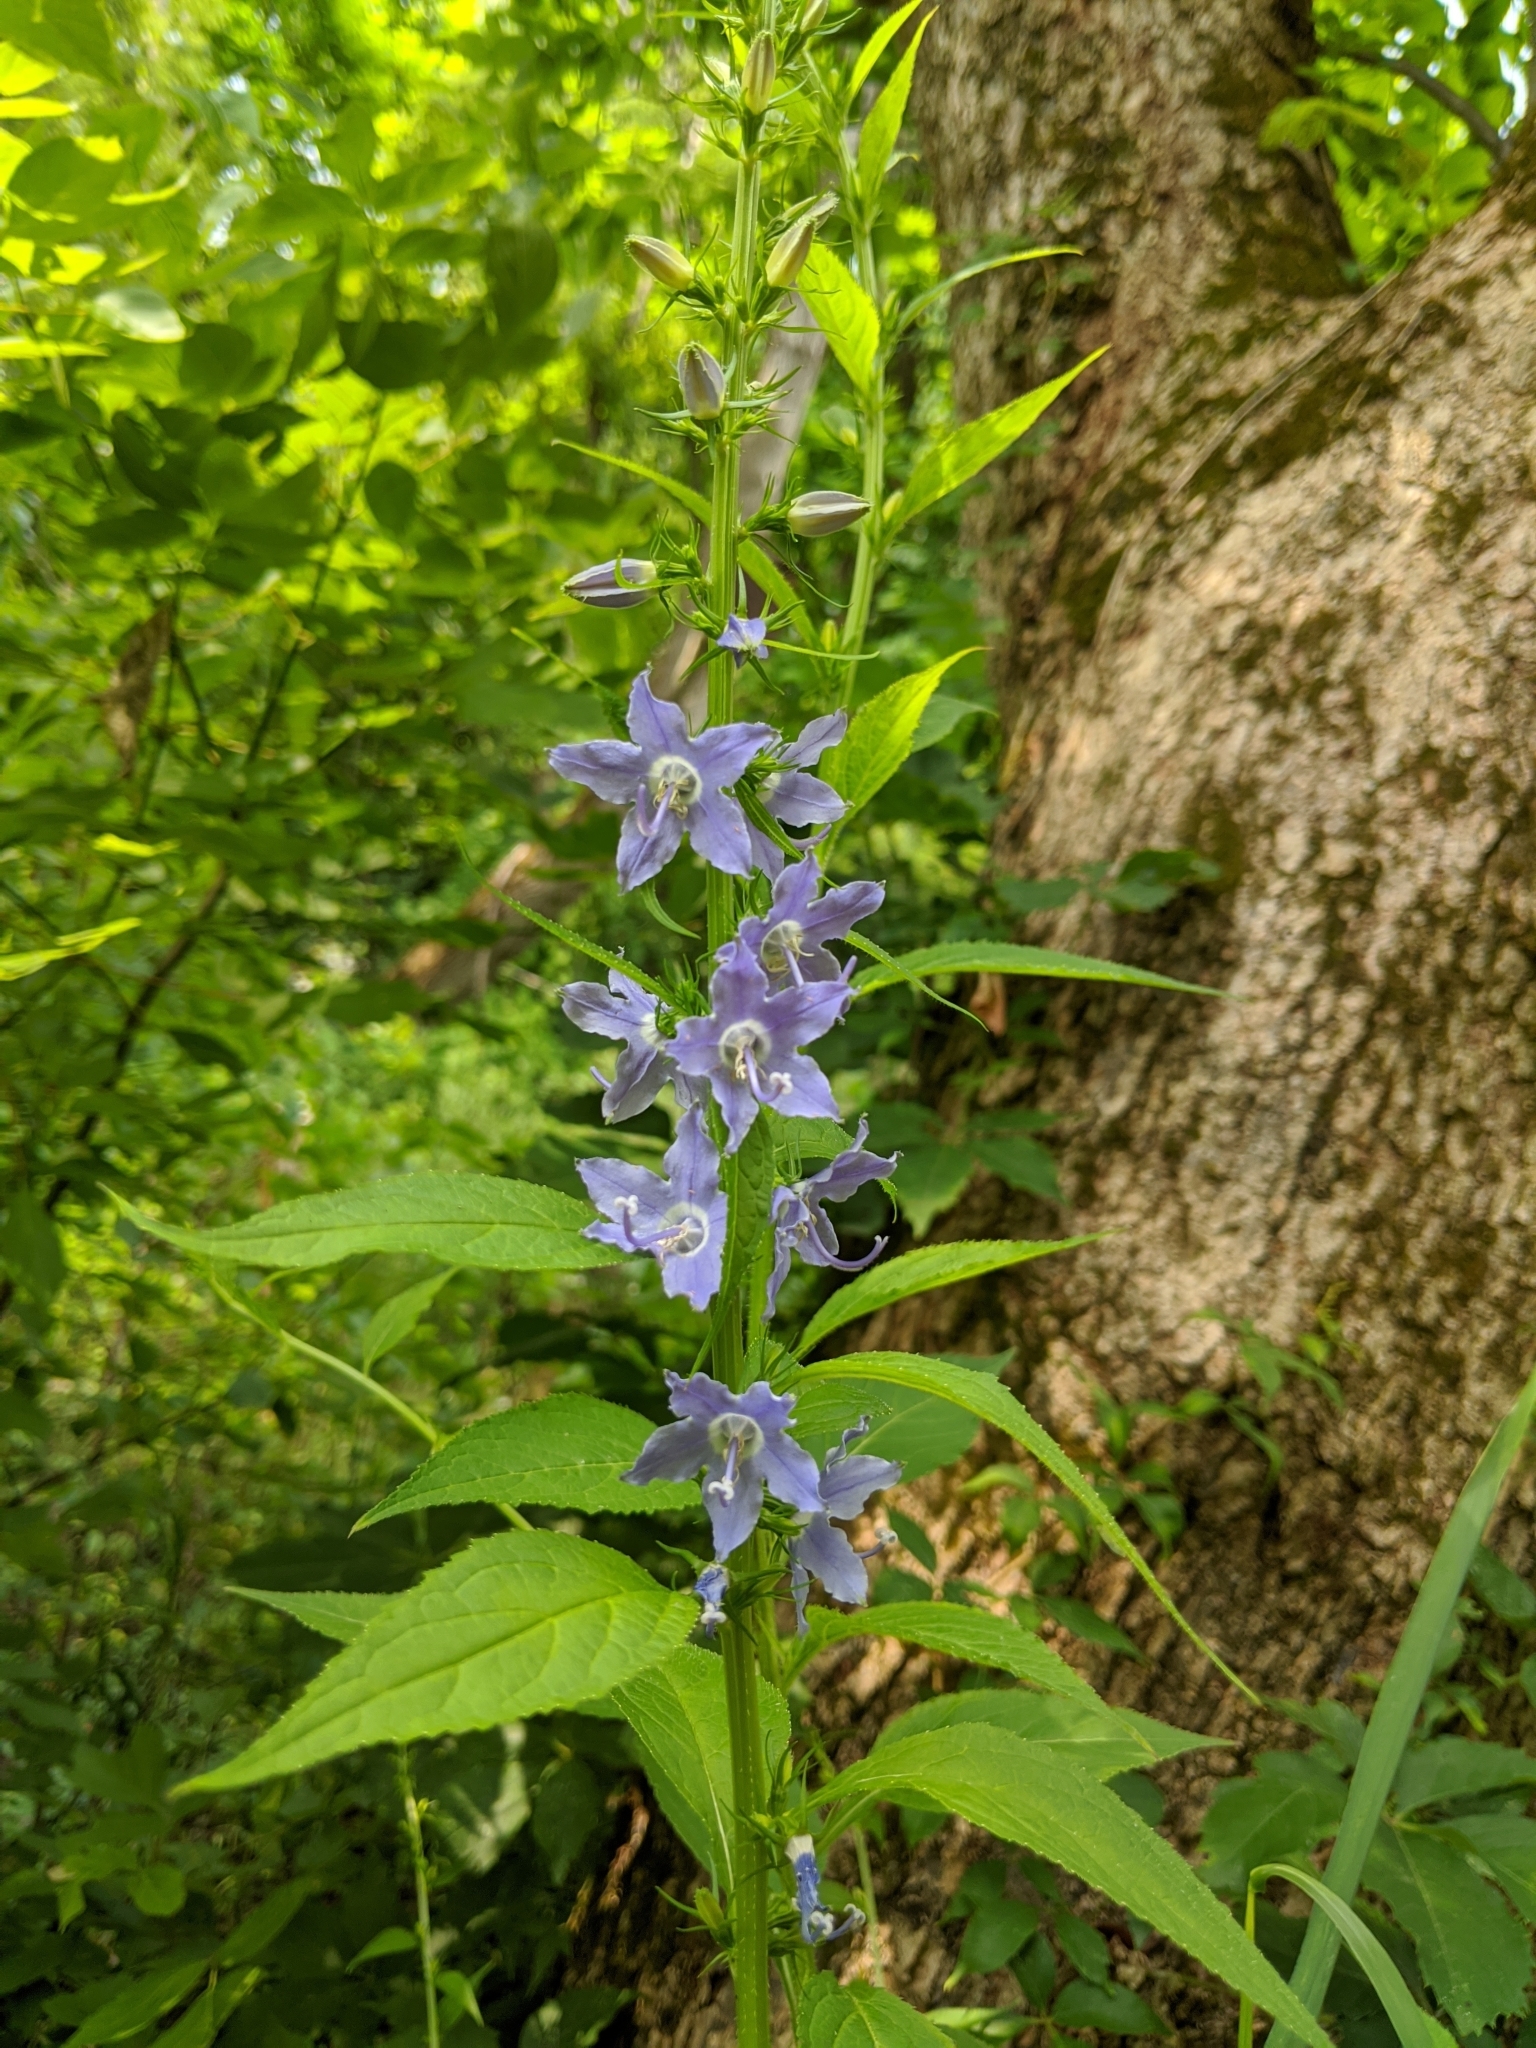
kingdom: Plantae
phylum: Tracheophyta
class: Magnoliopsida
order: Asterales
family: Campanulaceae
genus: Campanulastrum
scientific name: Campanulastrum americanum
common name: American bellflower
